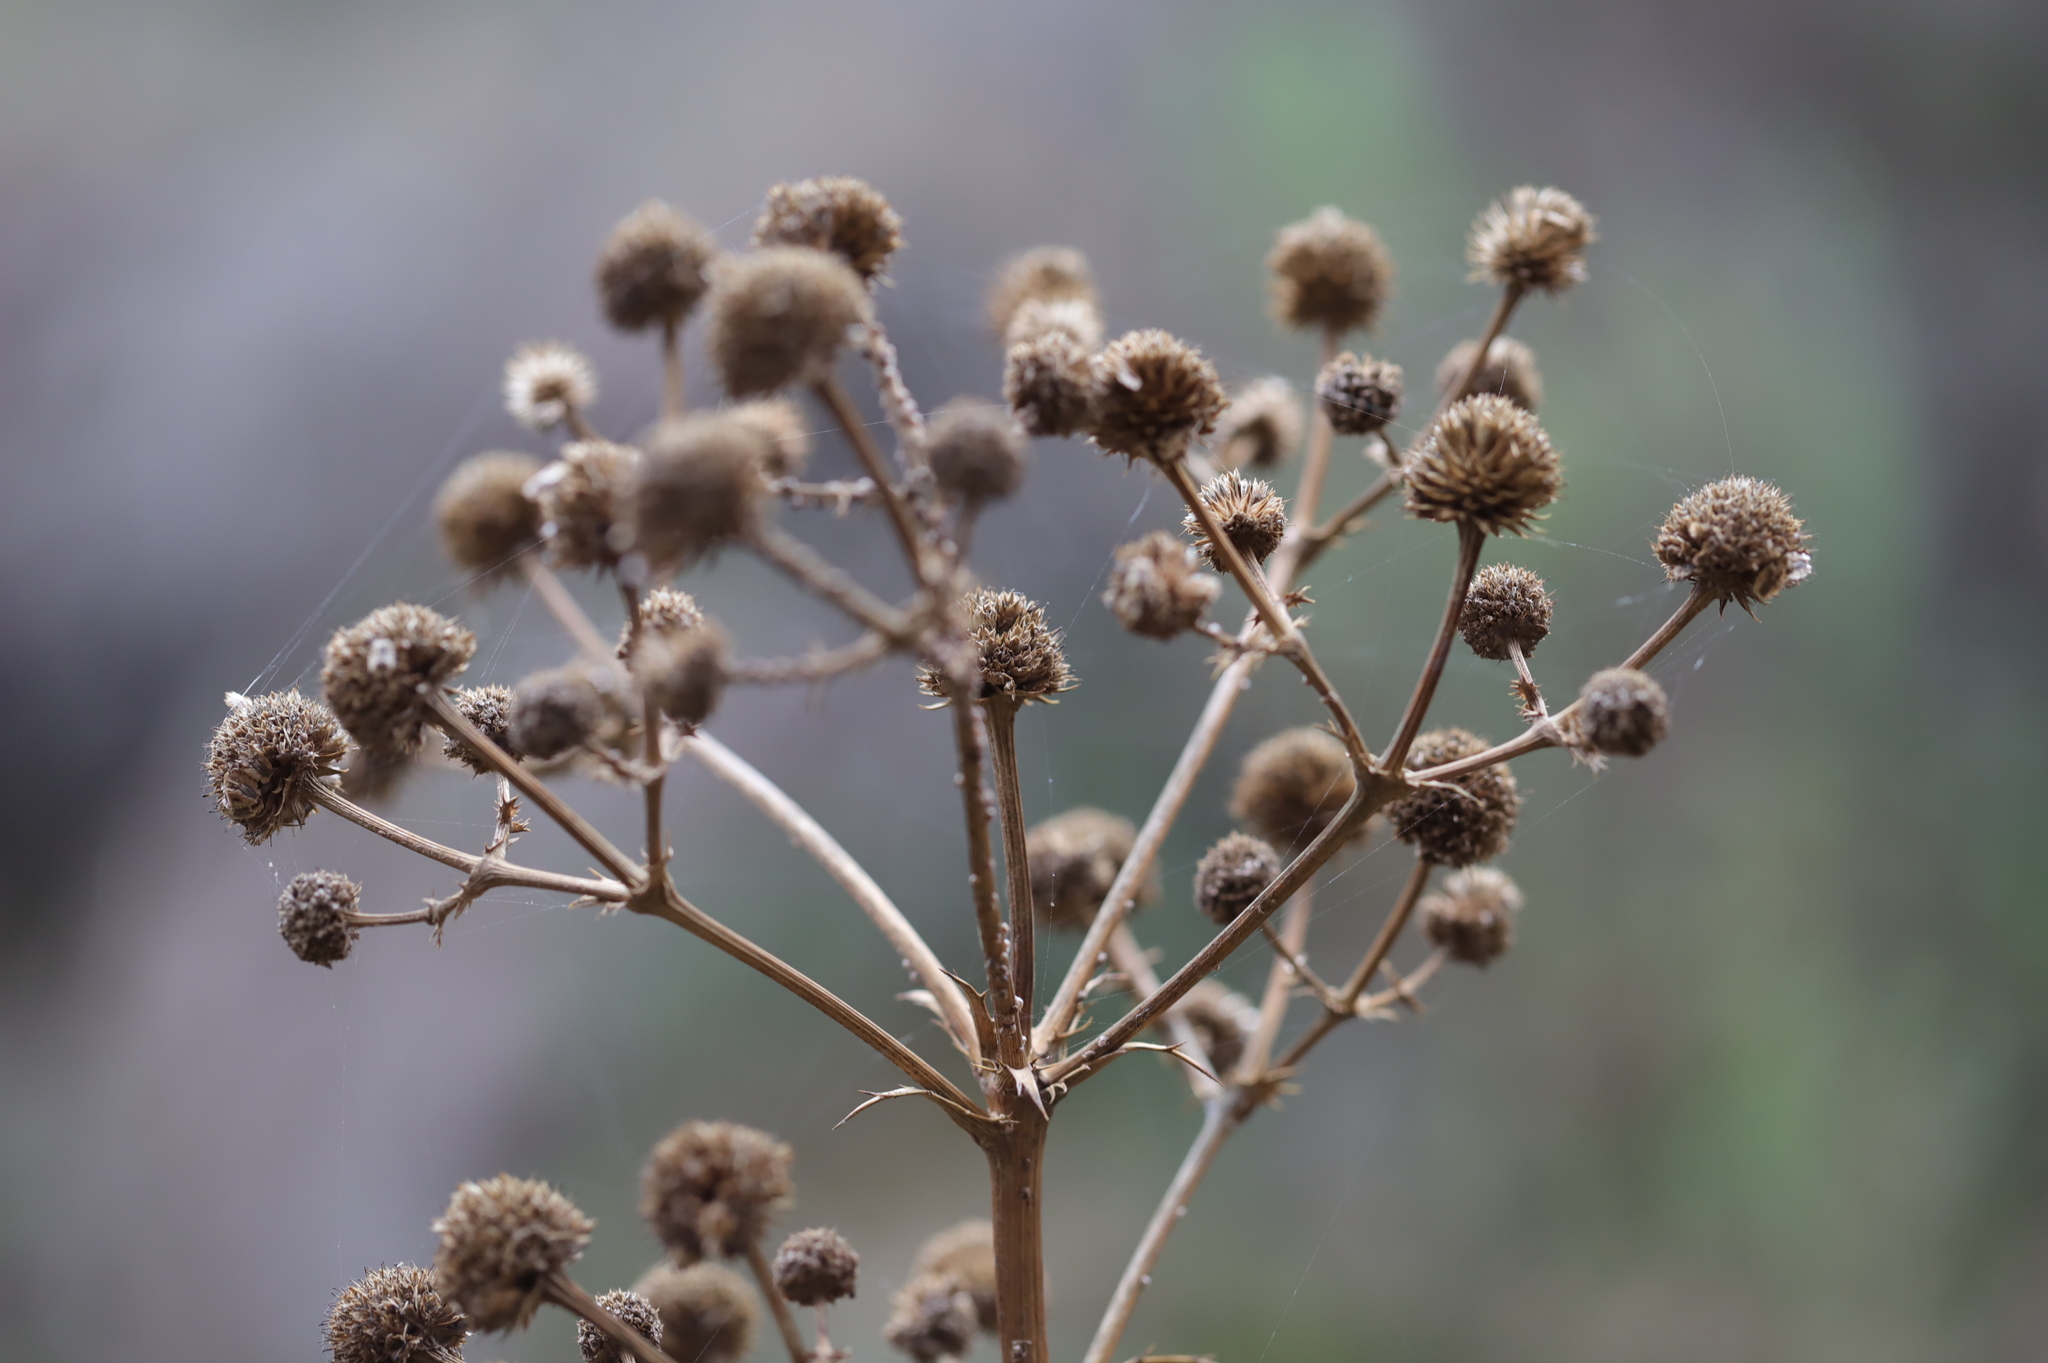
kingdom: Plantae
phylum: Tracheophyta
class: Magnoliopsida
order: Apiales
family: Apiaceae
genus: Eryngium
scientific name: Eryngium humboldtii
